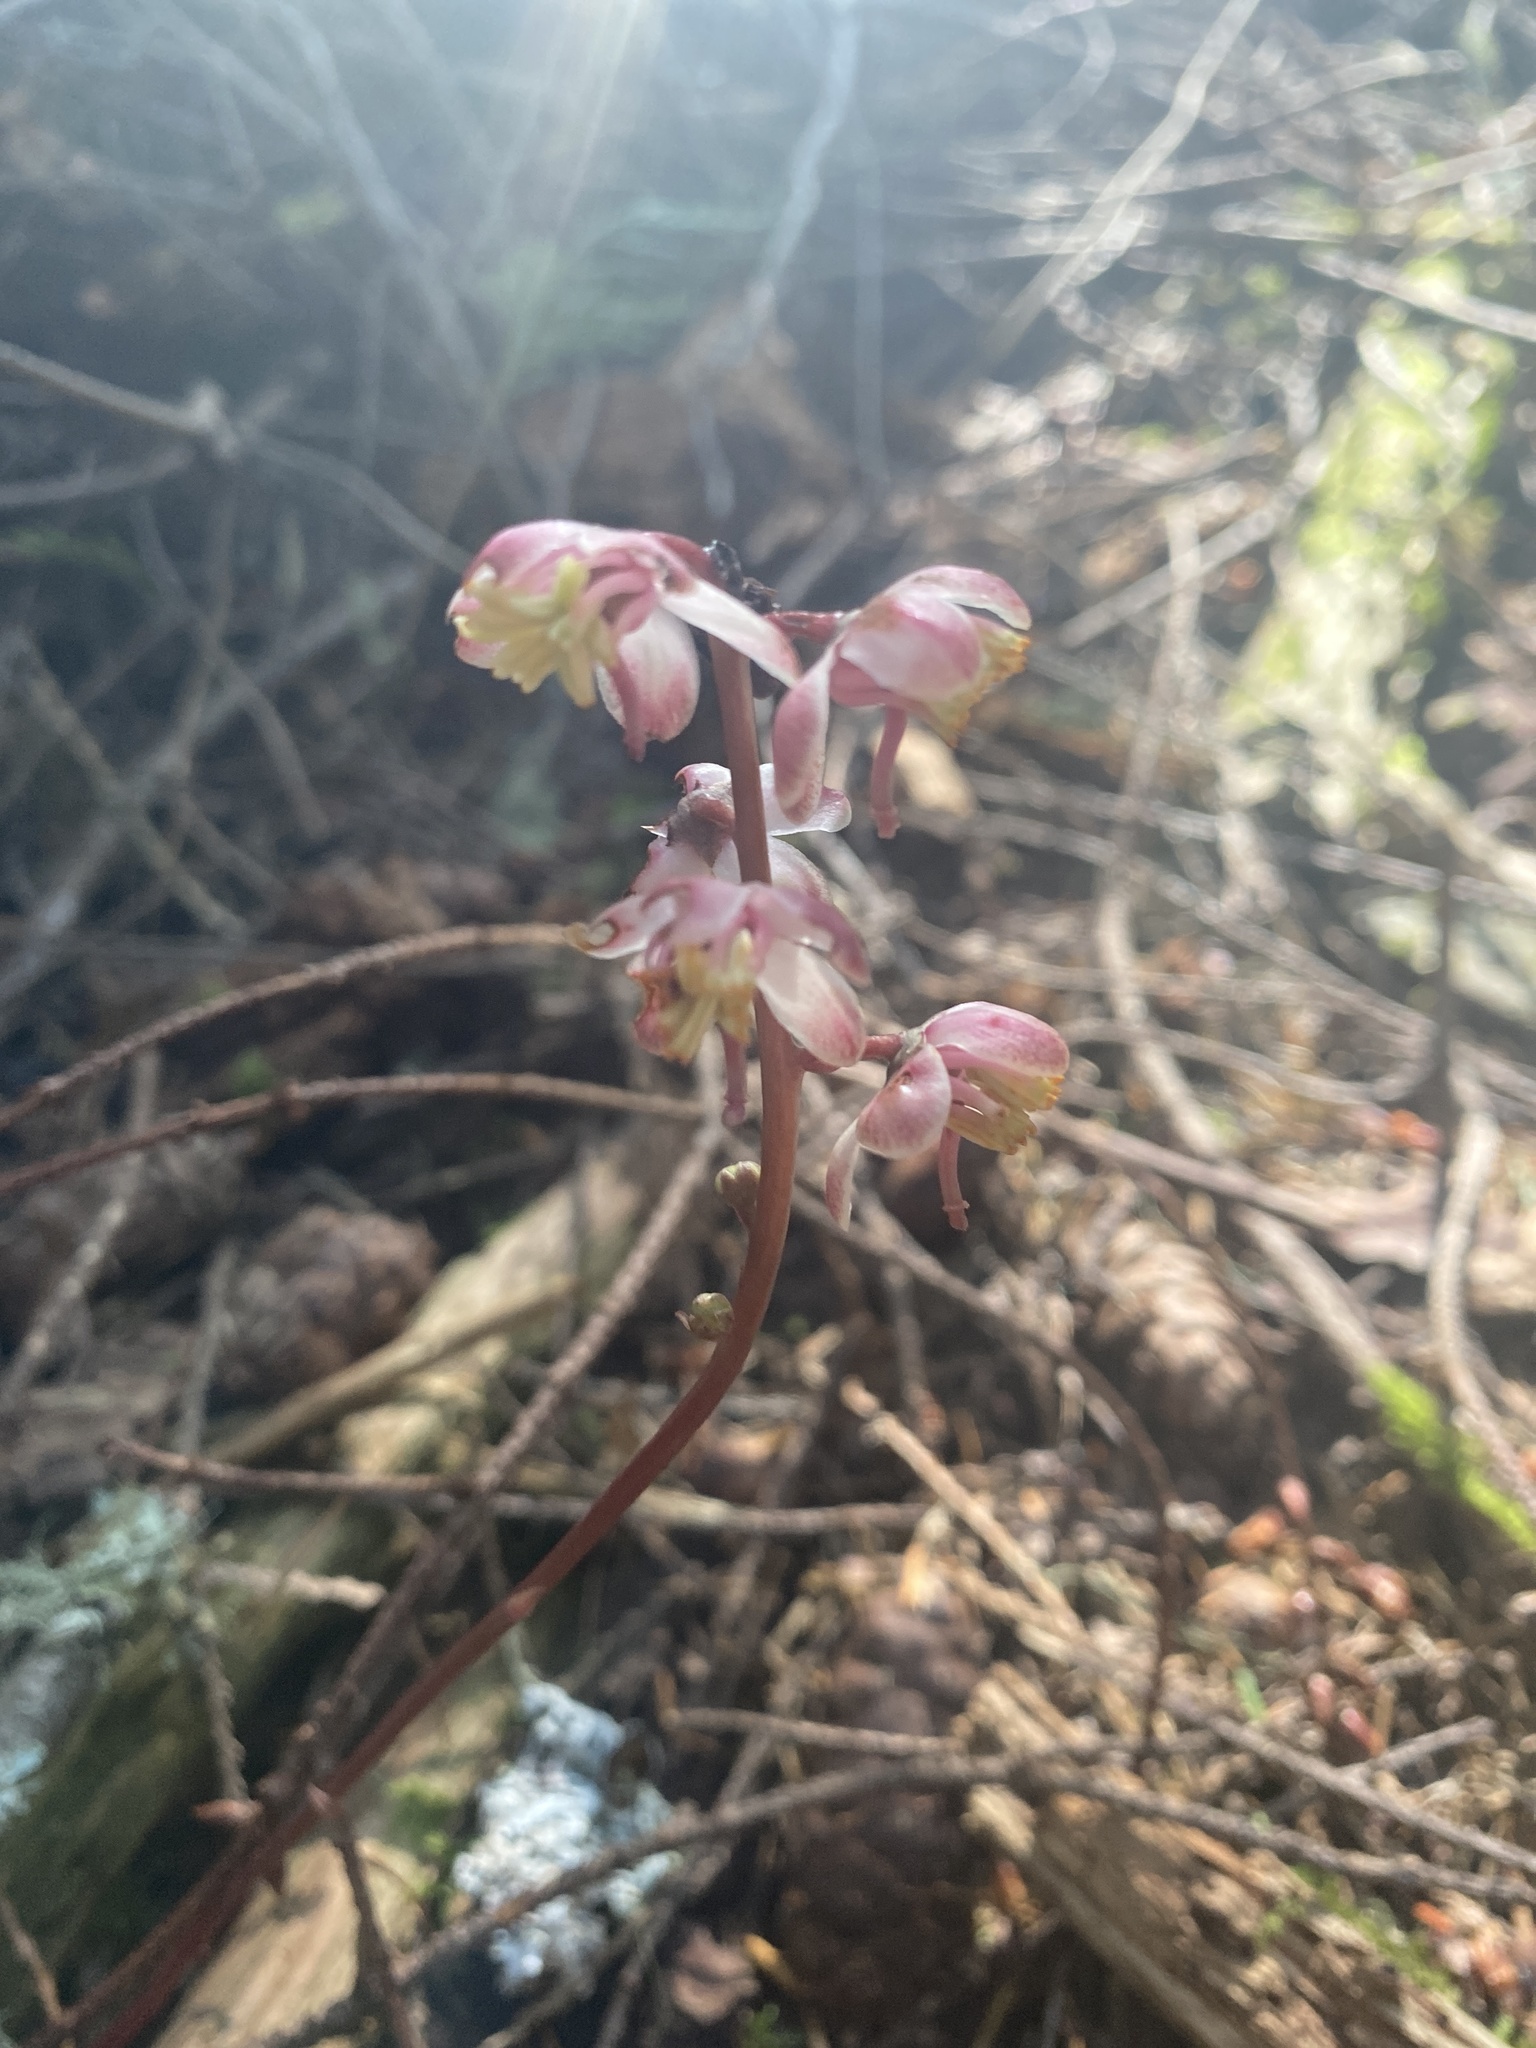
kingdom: Plantae
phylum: Tracheophyta
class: Magnoliopsida
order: Ericales
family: Ericaceae
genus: Pyrola
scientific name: Pyrola aphylla
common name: Leafless wintergreen
